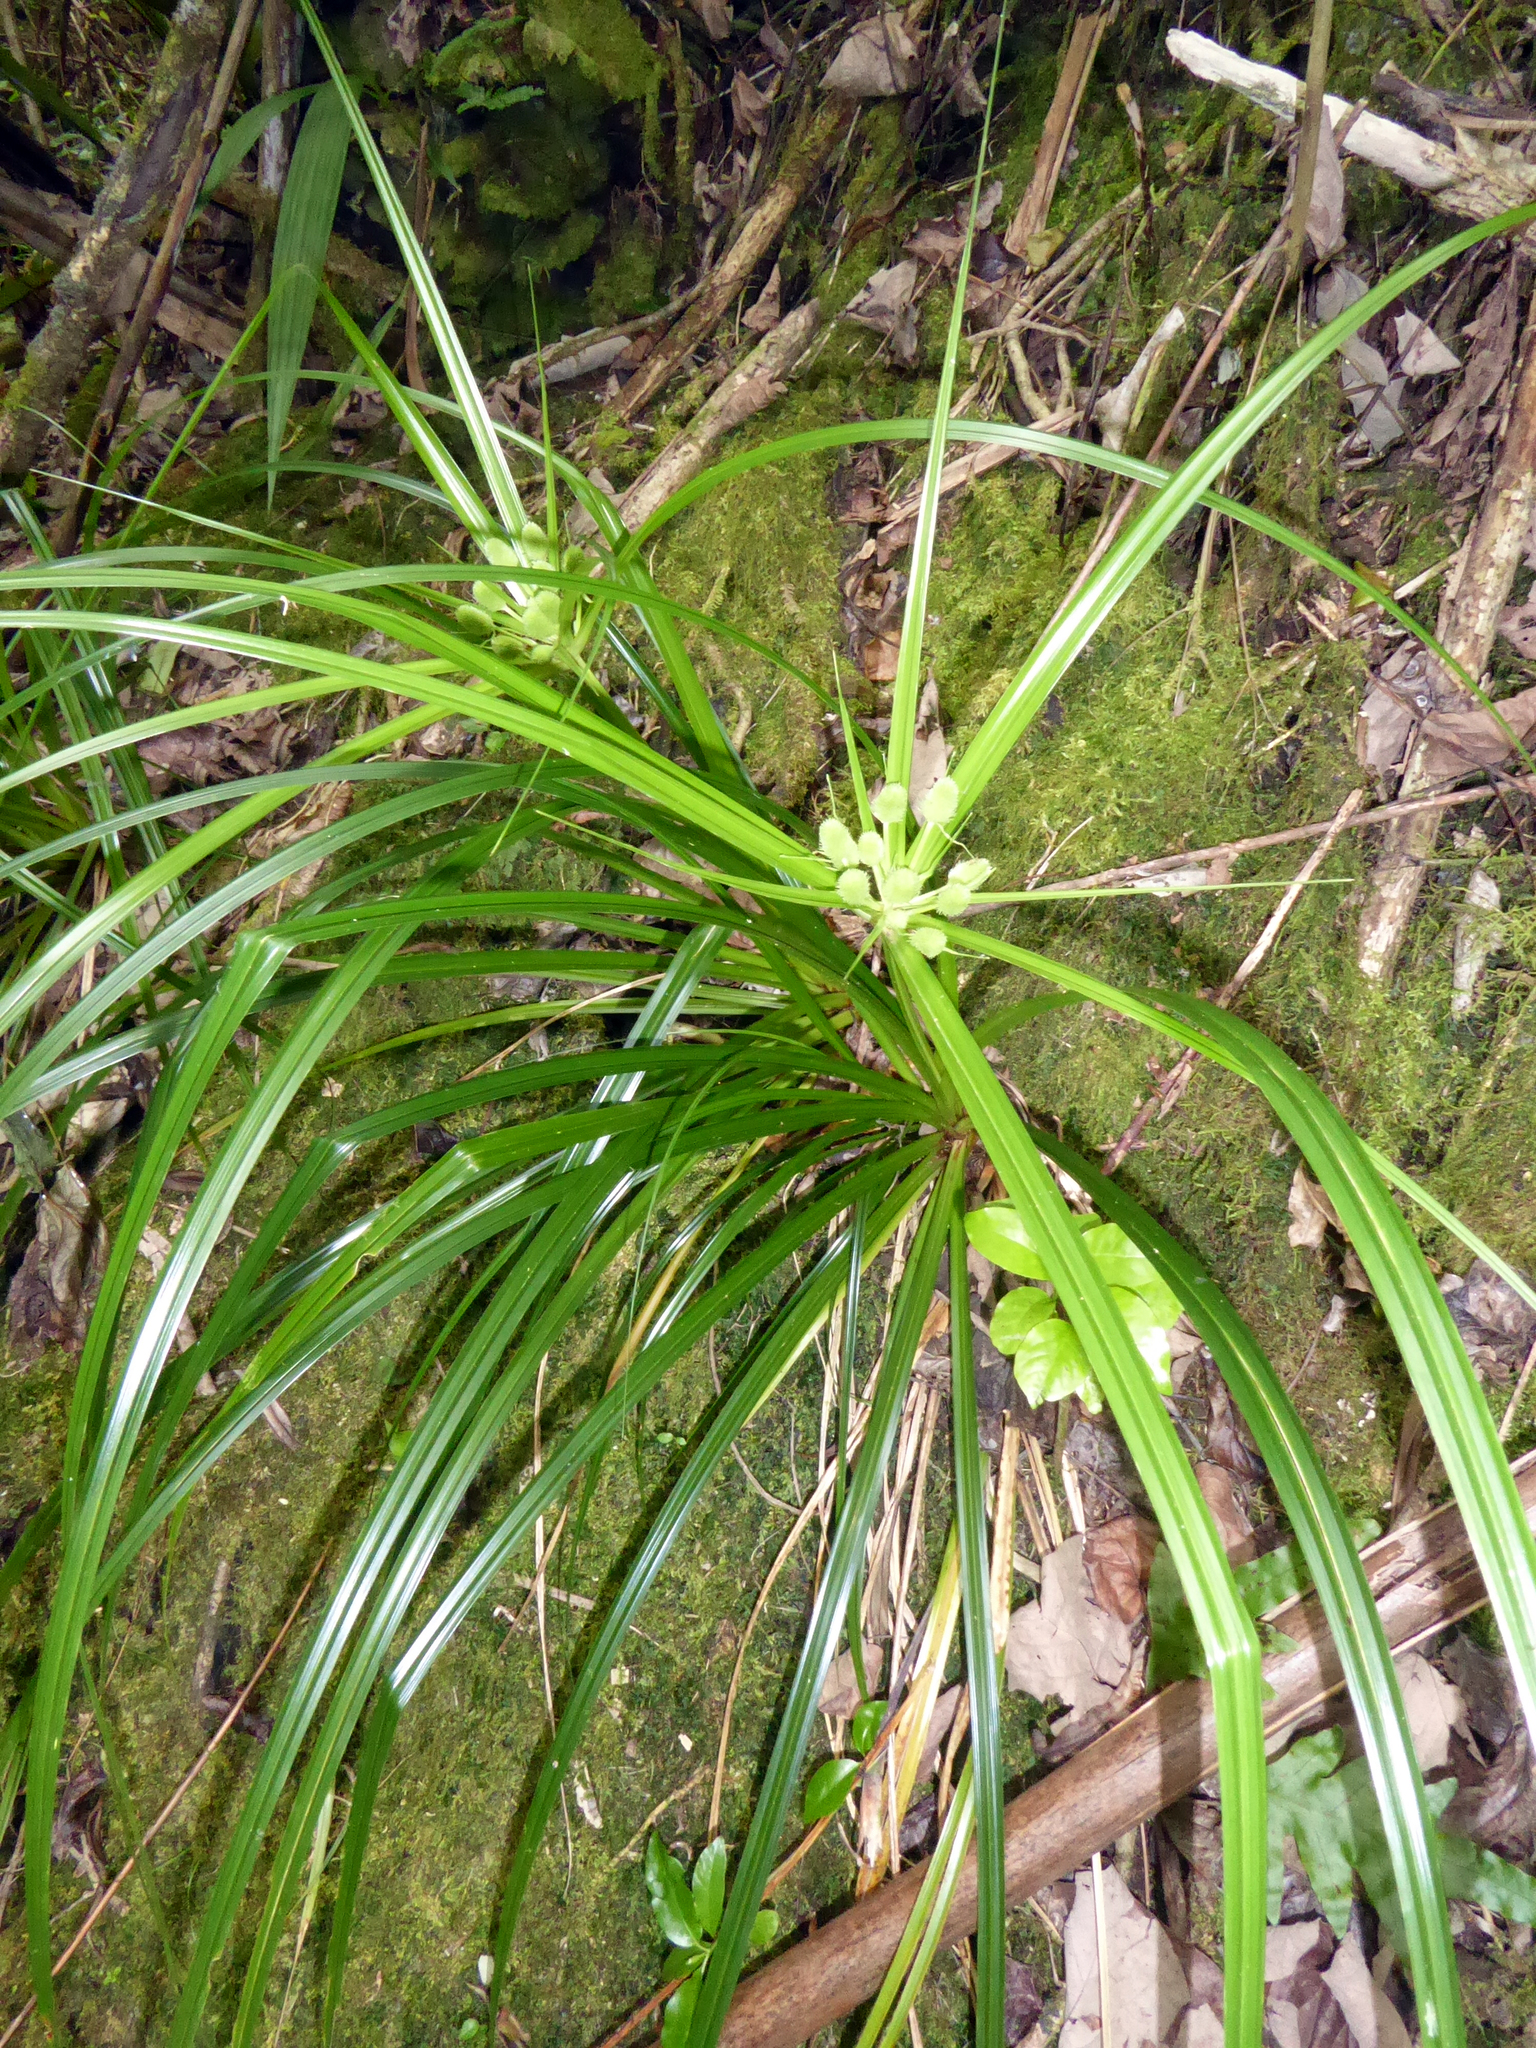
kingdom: Plantae
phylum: Tracheophyta
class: Liliopsida
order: Poales
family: Cyperaceae
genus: Cyperus
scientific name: Cyperus macrophyllus
